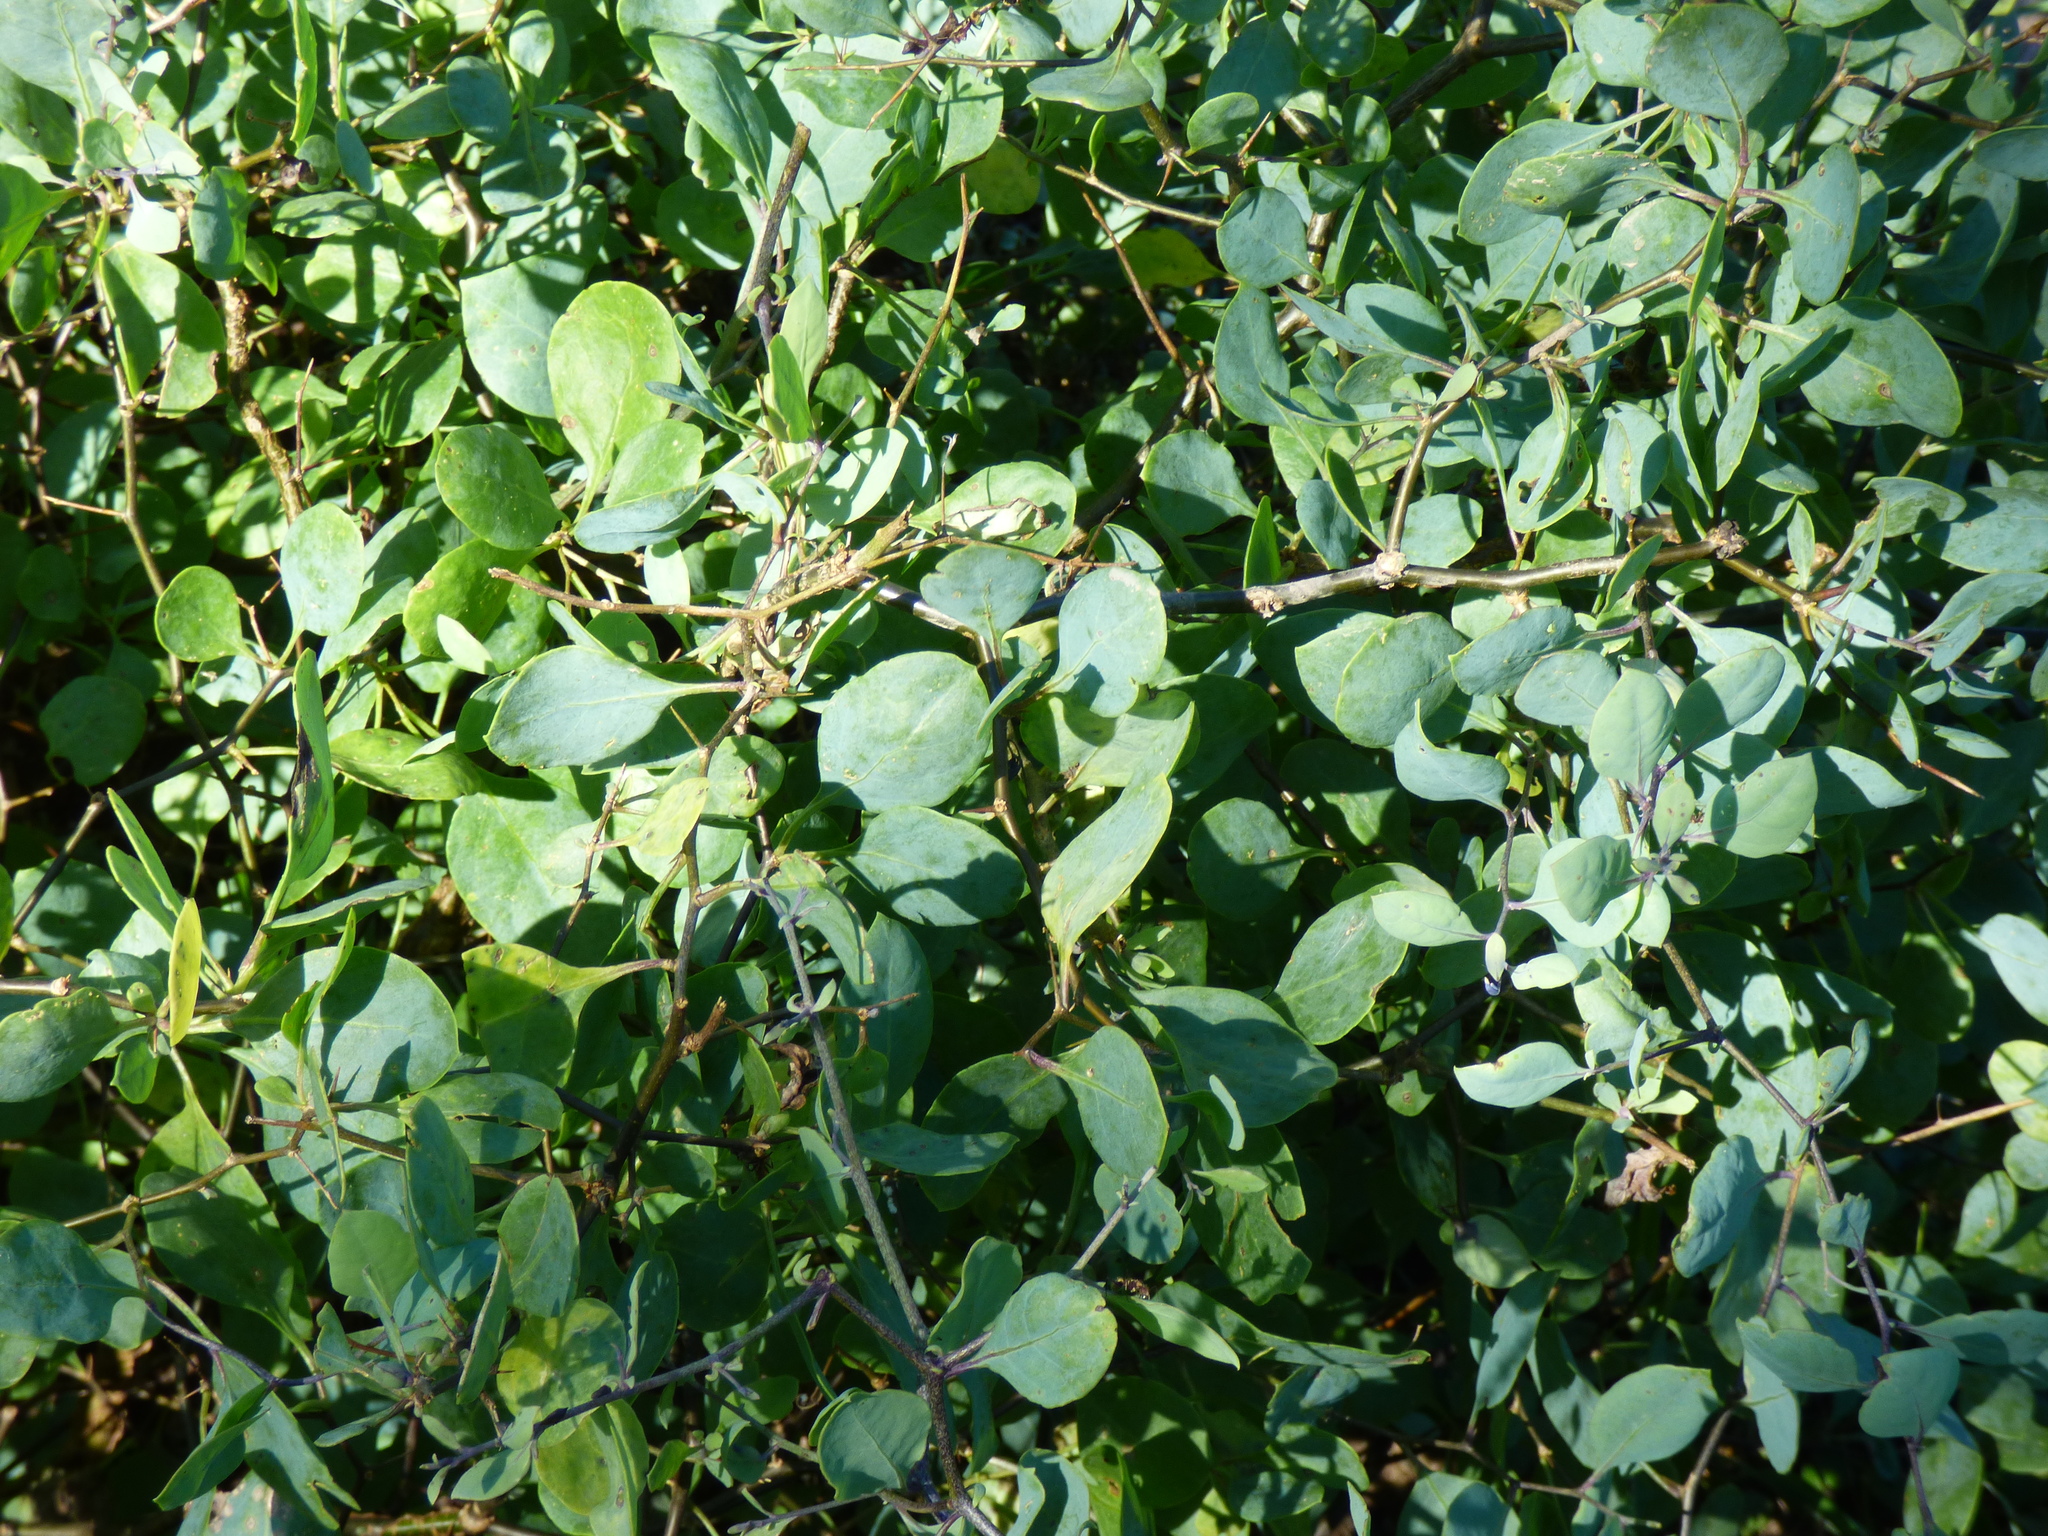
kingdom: Plantae
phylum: Tracheophyta
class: Magnoliopsida
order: Solanales
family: Solanaceae
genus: Lycium
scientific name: Lycium boerhaaviifolium
